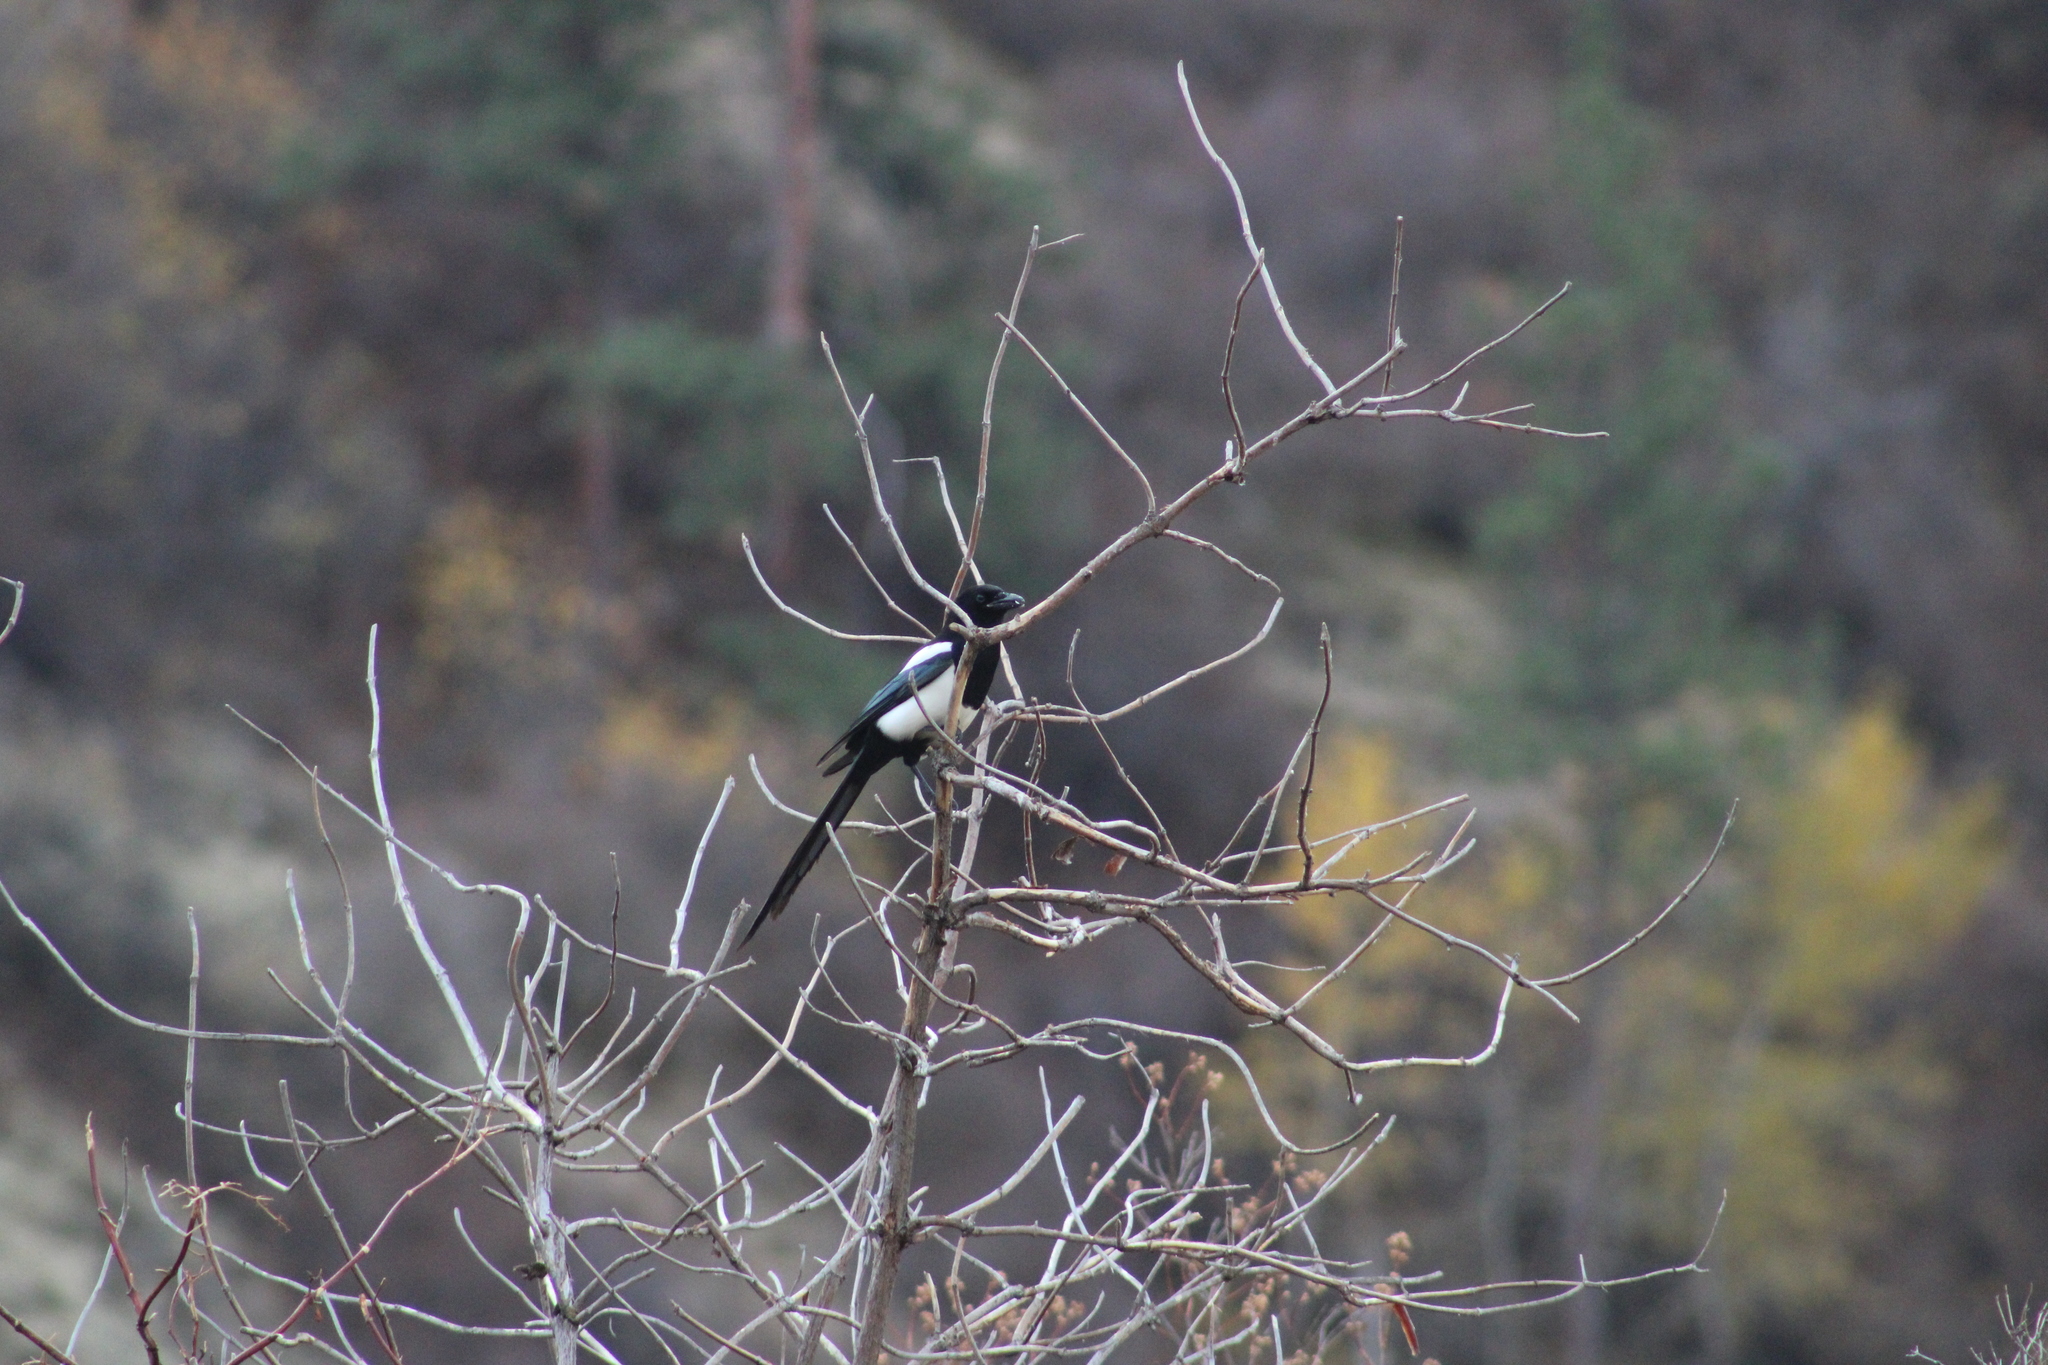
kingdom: Animalia
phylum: Chordata
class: Aves
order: Passeriformes
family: Corvidae
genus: Pica
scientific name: Pica hudsonia
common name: Black-billed magpie
